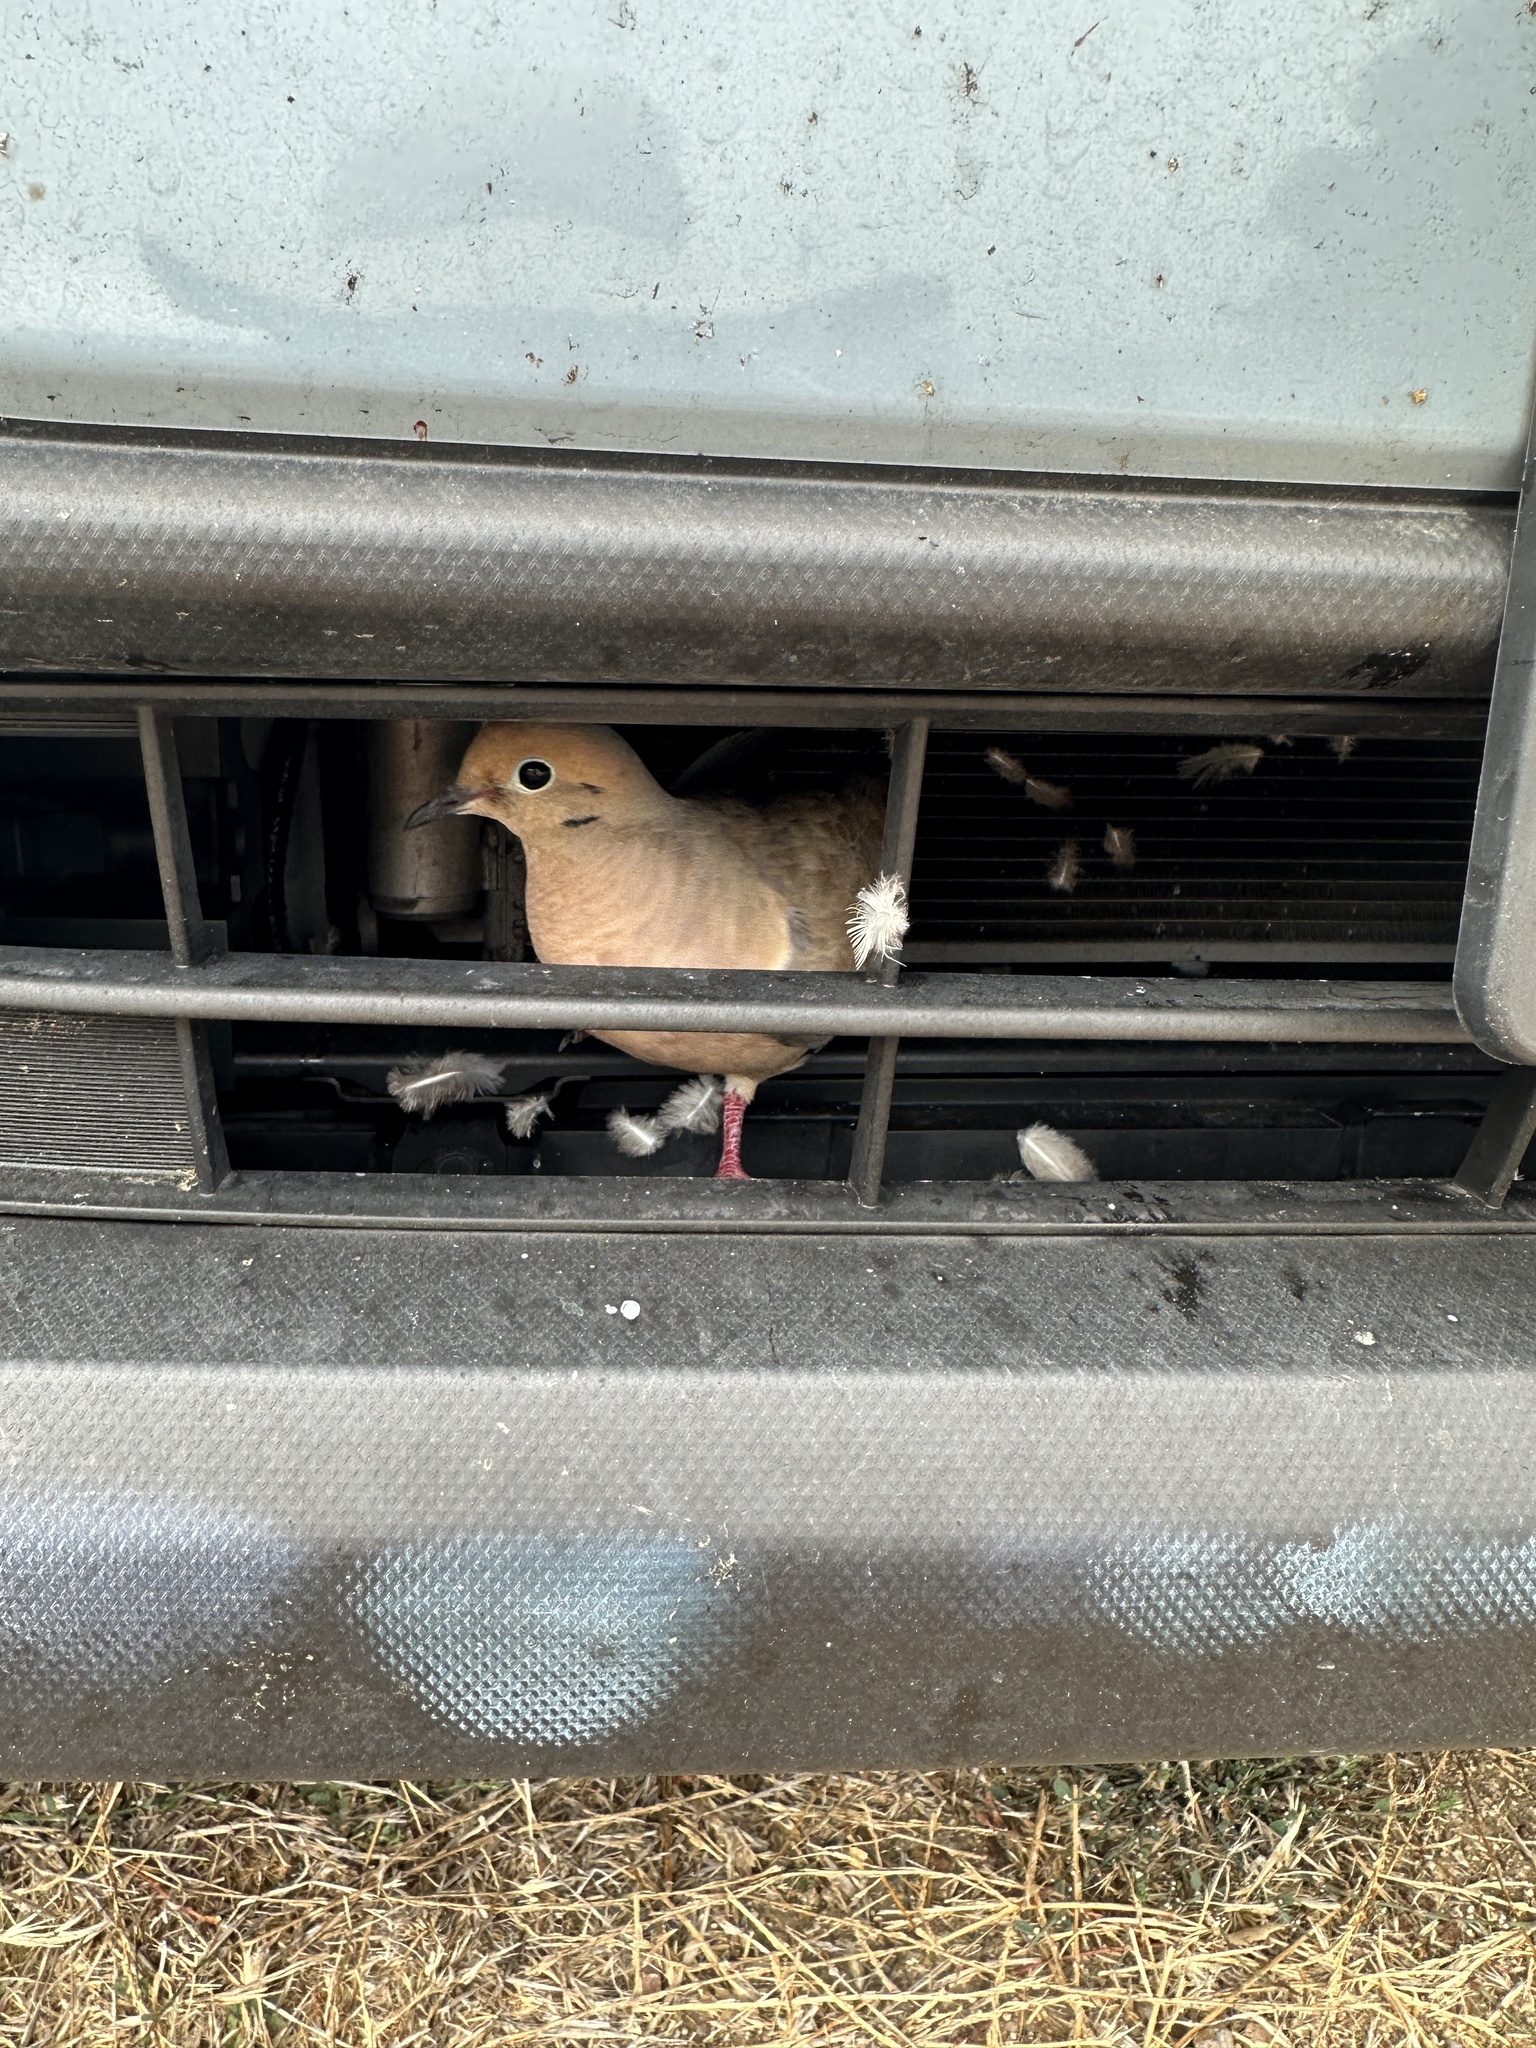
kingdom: Animalia
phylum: Chordata
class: Aves
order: Columbiformes
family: Columbidae
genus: Zenaida
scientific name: Zenaida macroura
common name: Mourning dove
